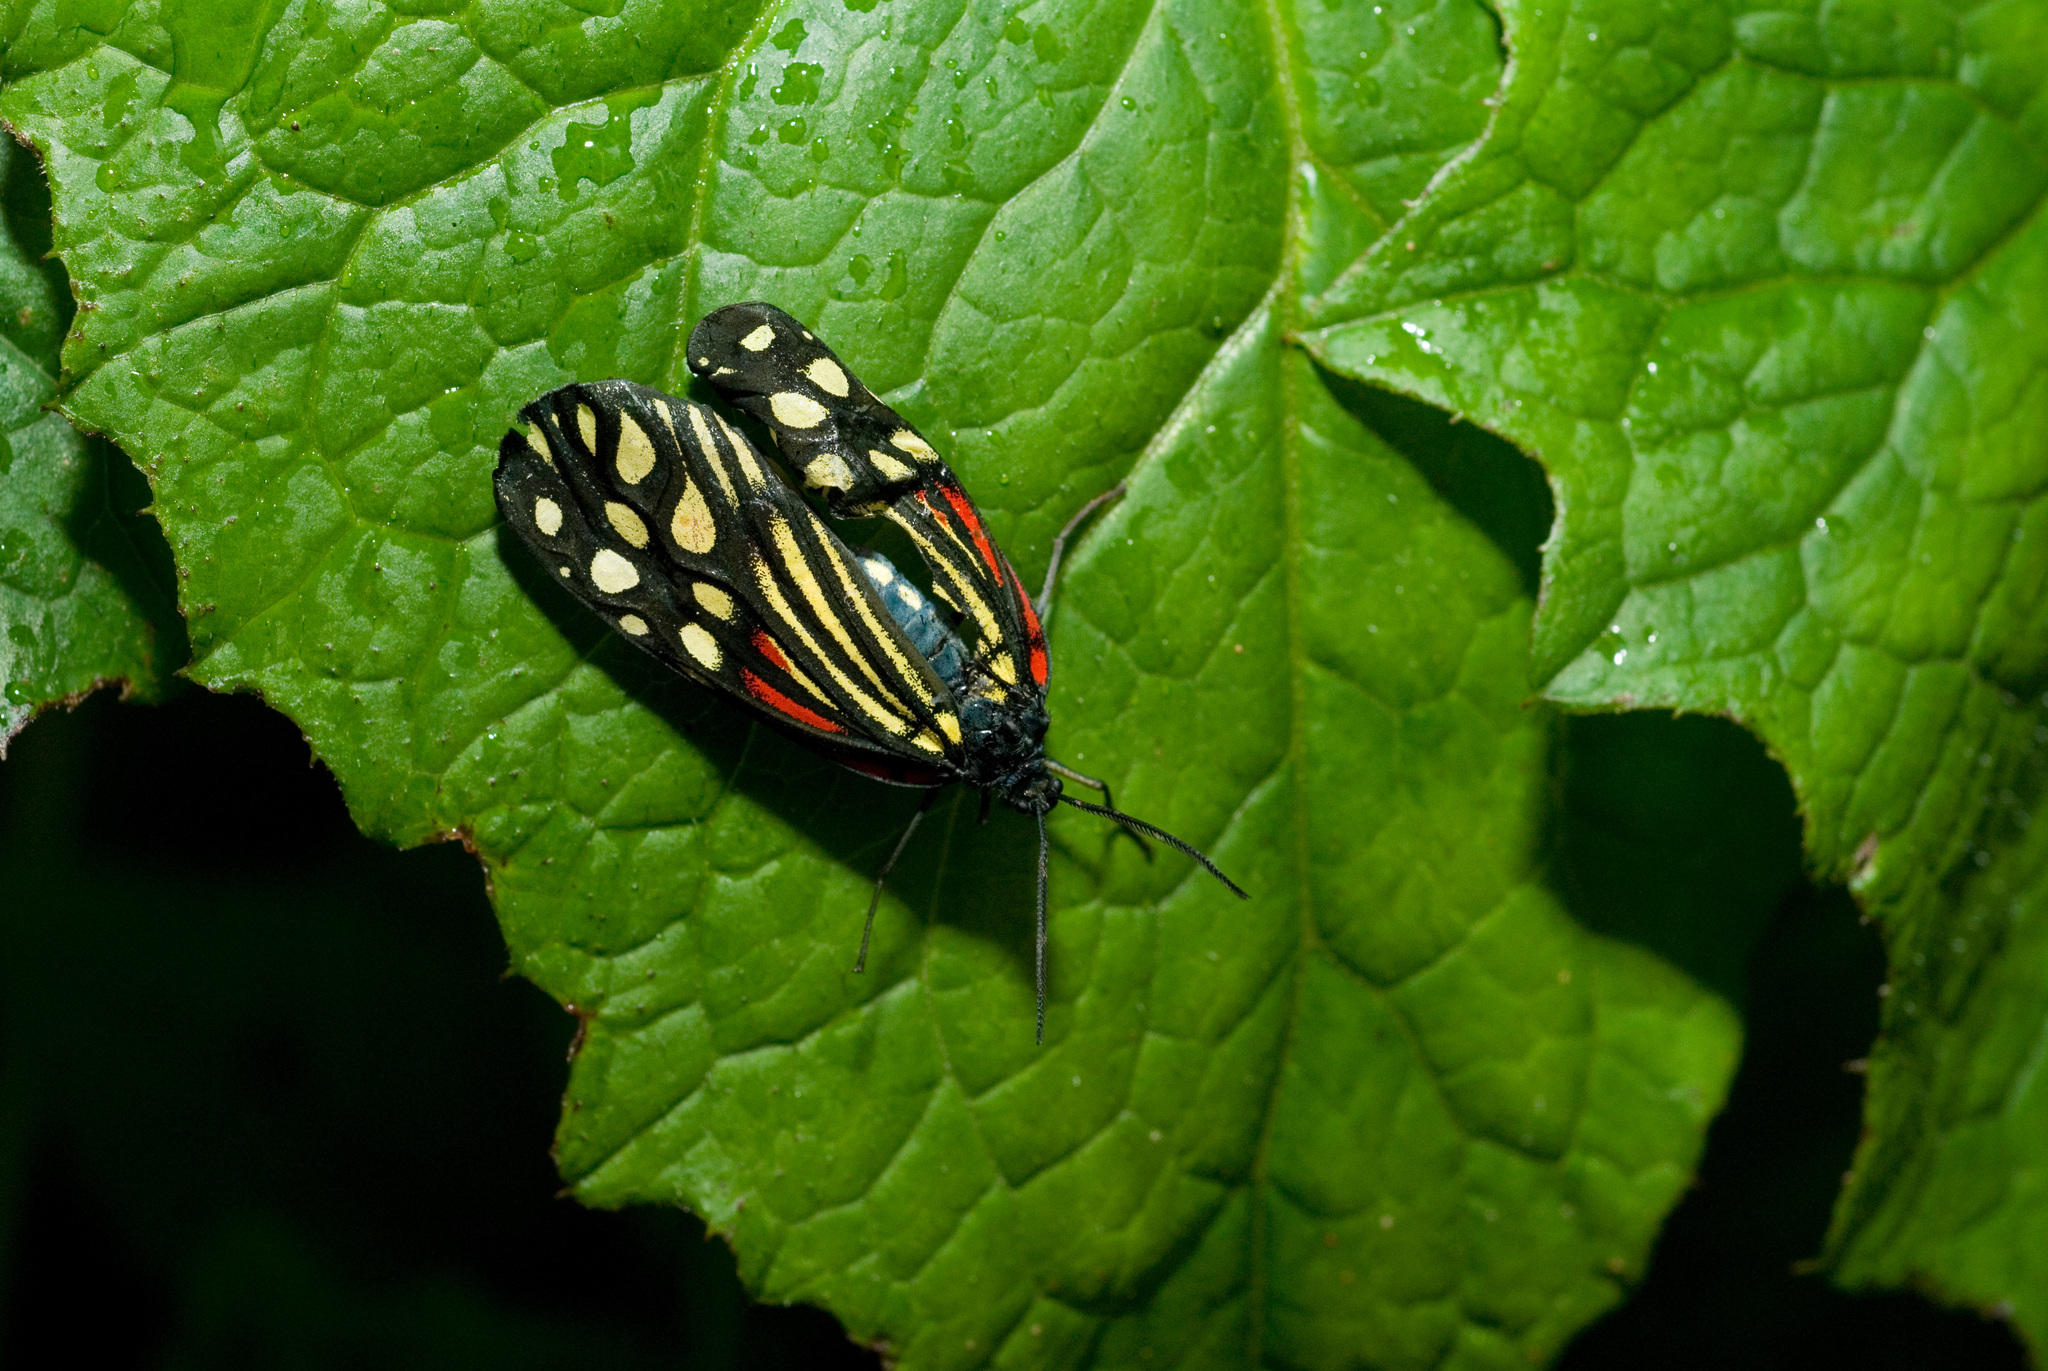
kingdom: Animalia
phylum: Arthropoda
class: Insecta
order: Lepidoptera
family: Zygaenidae
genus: Campylotes
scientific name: Campylotes maculosa
